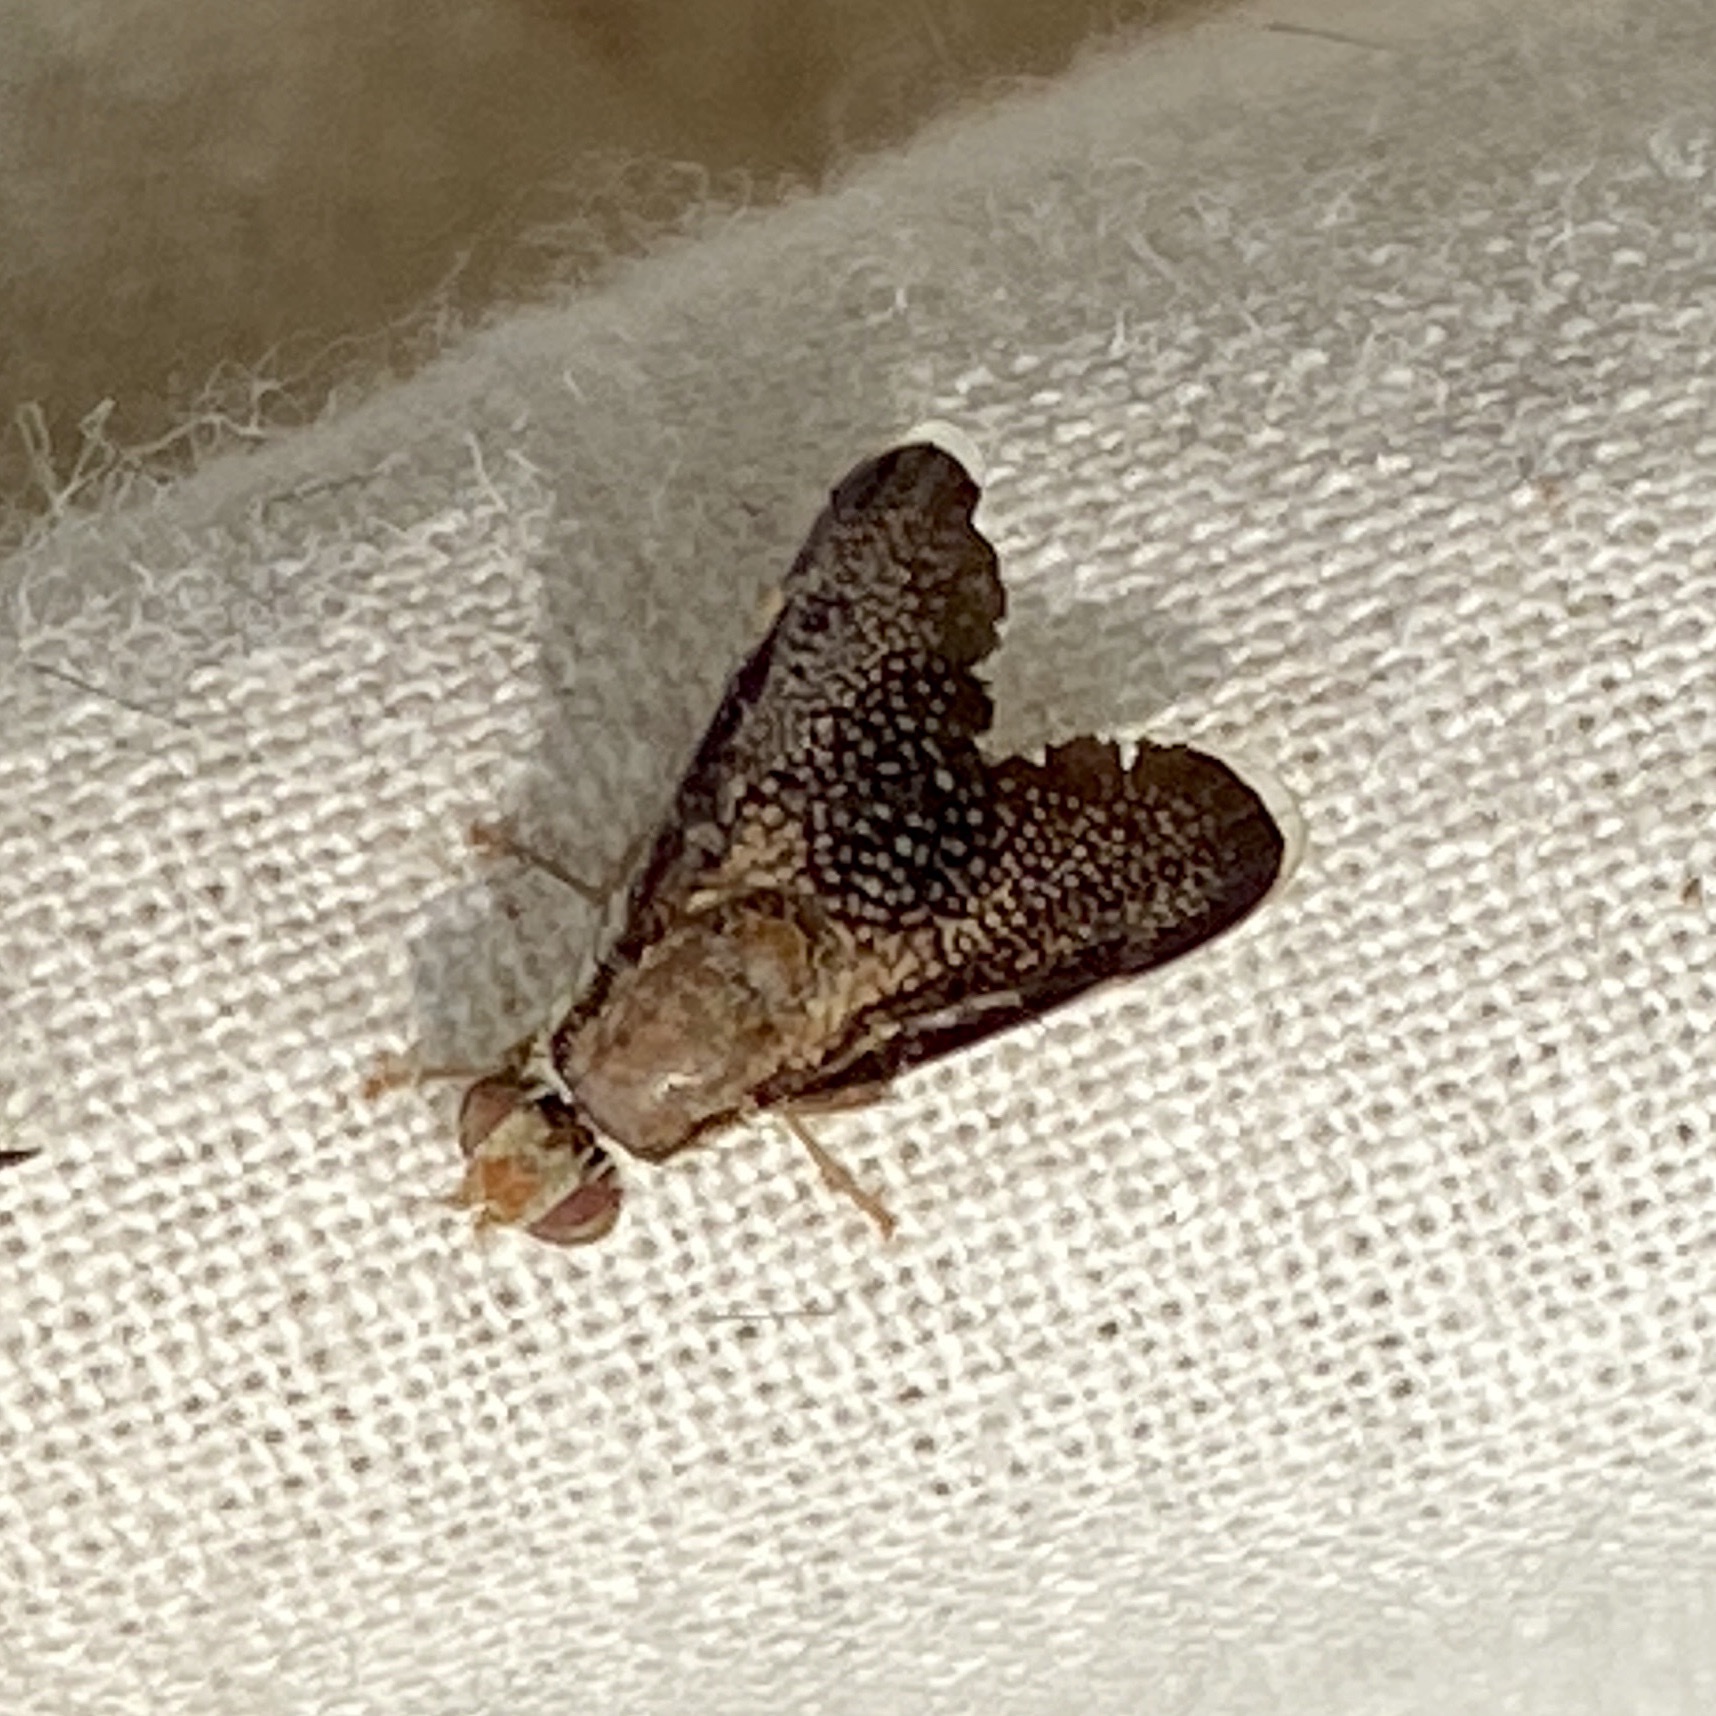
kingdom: Animalia
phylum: Arthropoda
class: Insecta
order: Diptera
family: Tephritidae
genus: Eutreta
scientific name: Eutreta novaeboracensis
